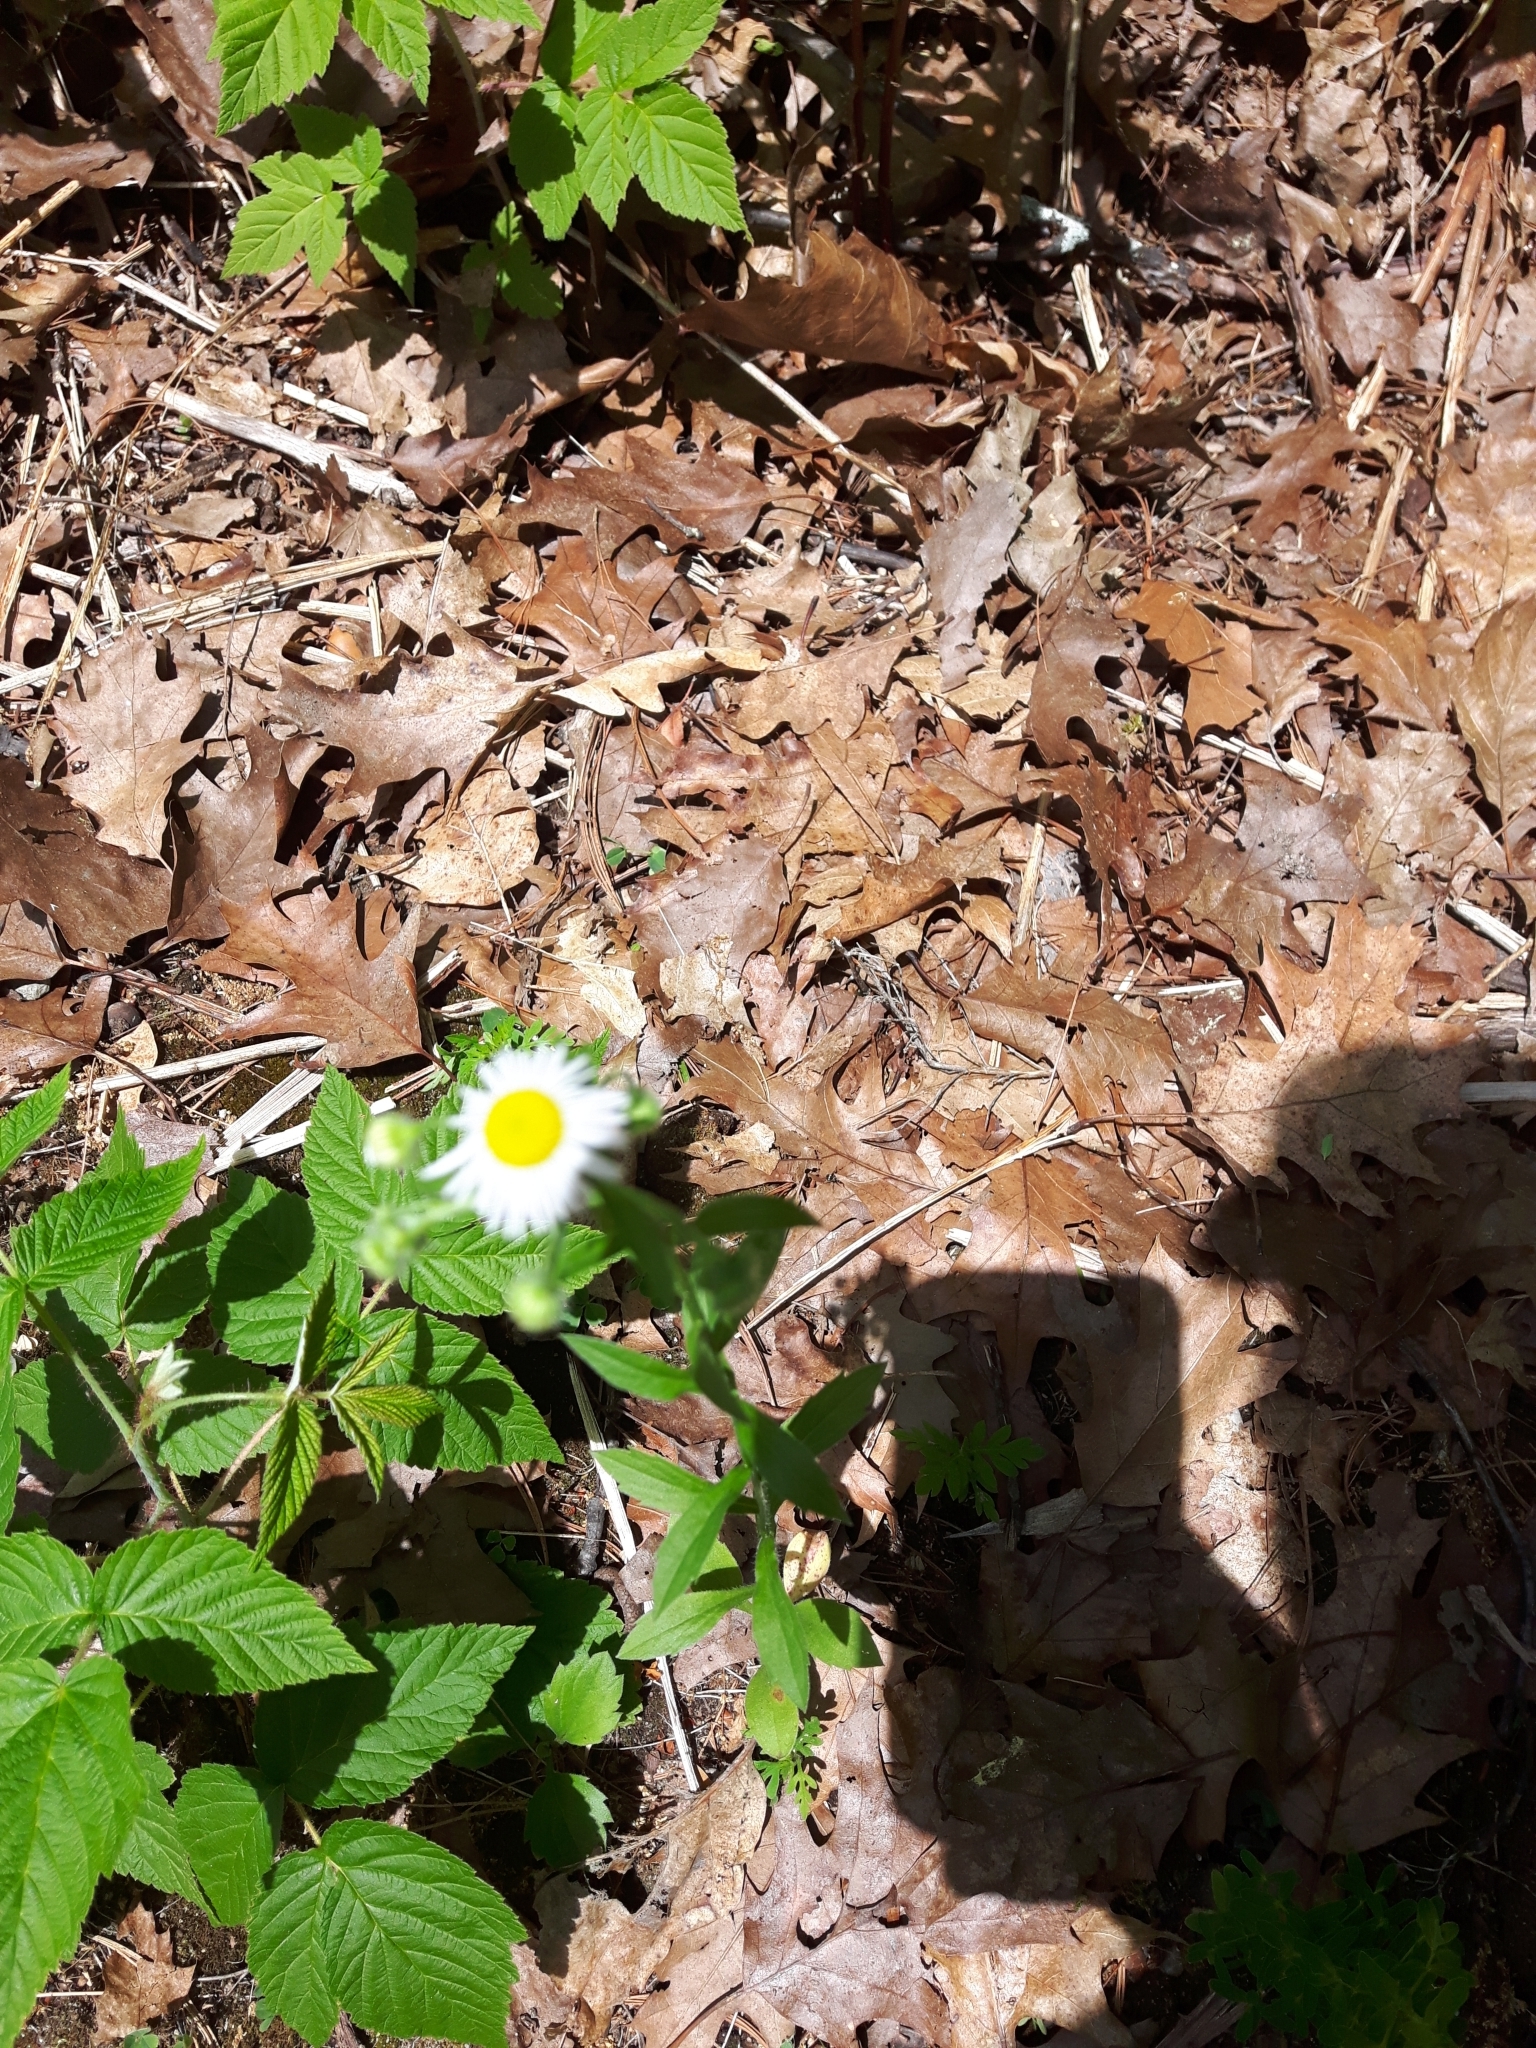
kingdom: Plantae
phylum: Tracheophyta
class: Magnoliopsida
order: Asterales
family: Asteraceae
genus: Erigeron
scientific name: Erigeron annuus
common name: Tall fleabane
